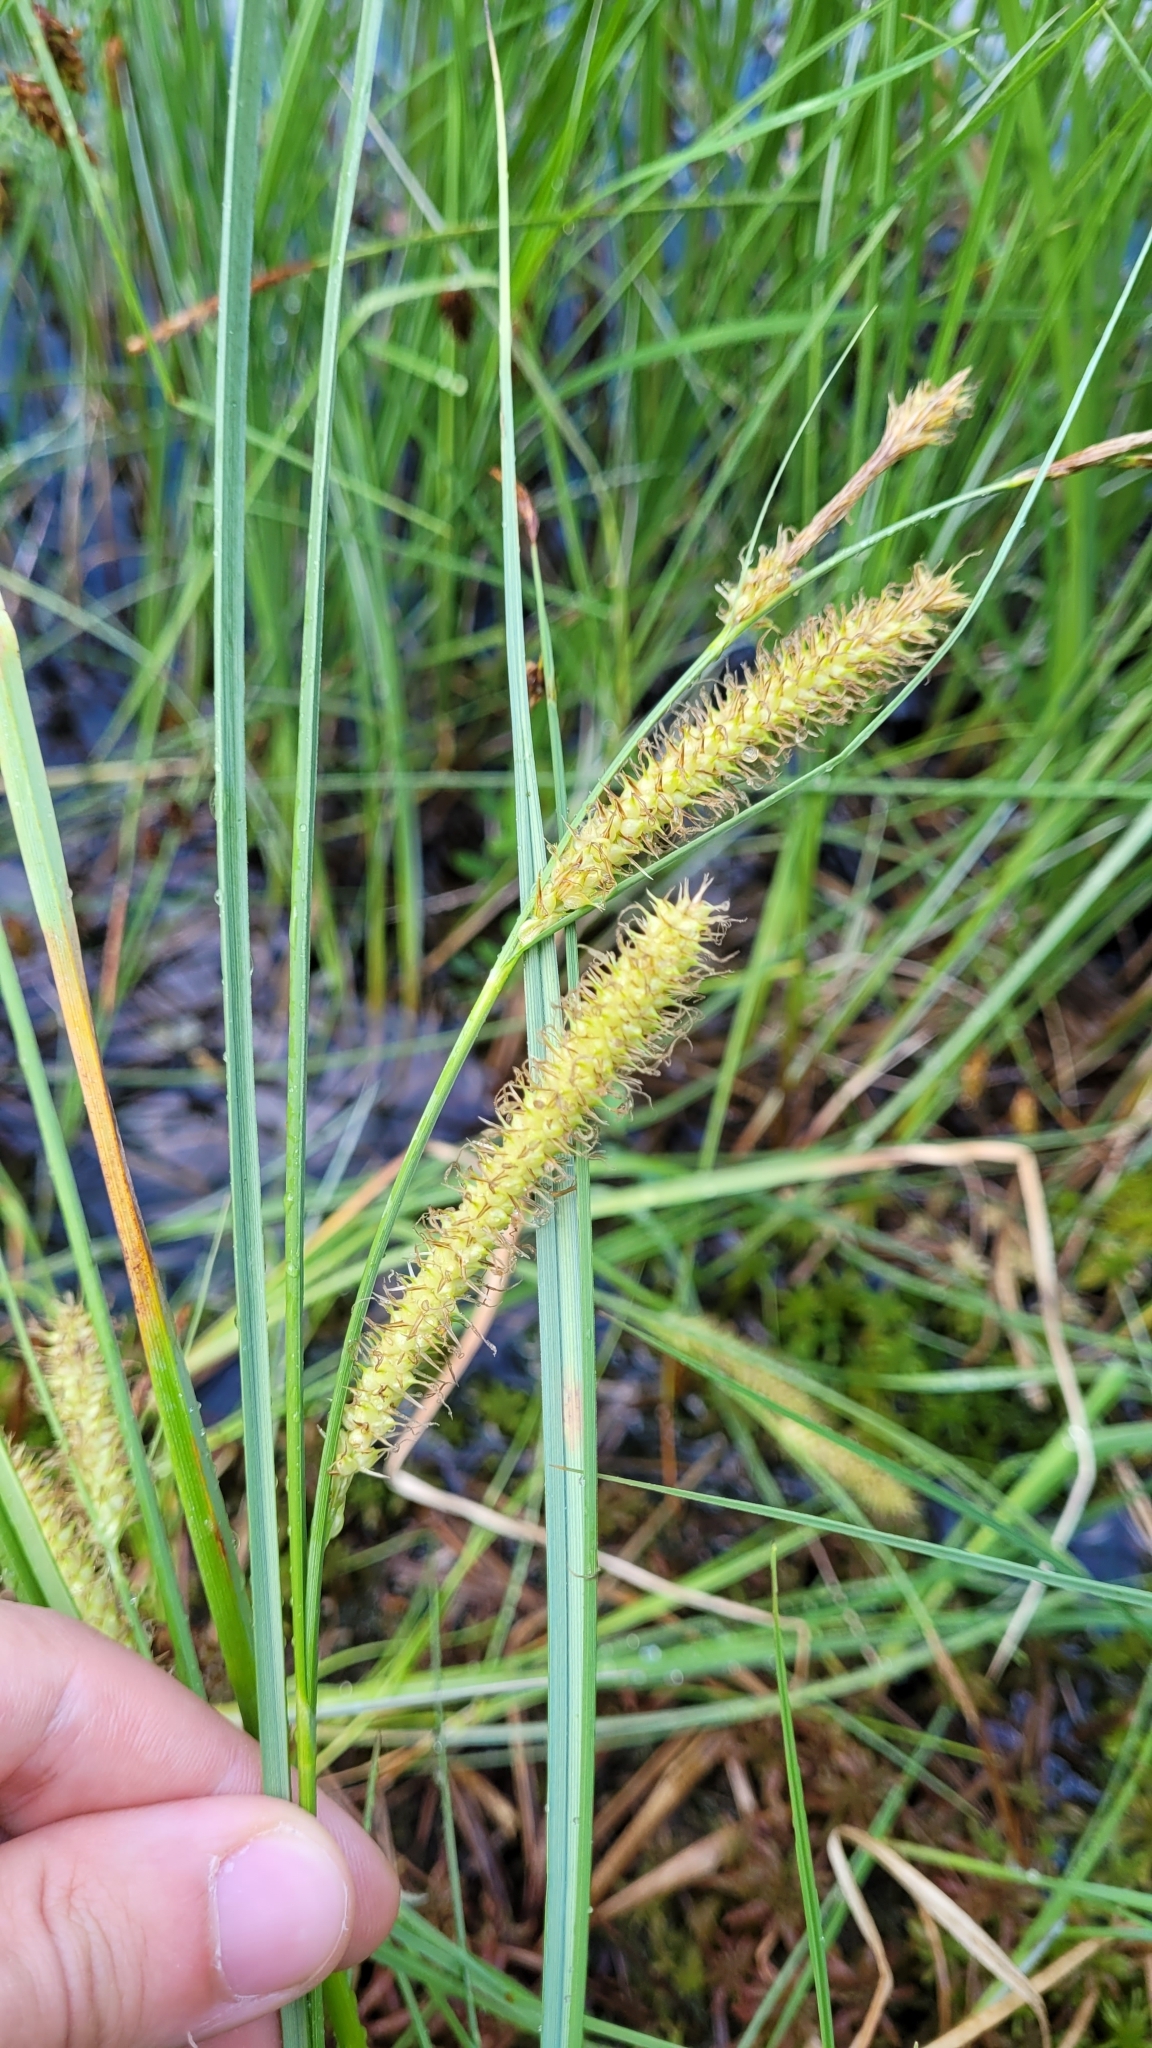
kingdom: Plantae
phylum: Tracheophyta
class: Liliopsida
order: Poales
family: Cyperaceae
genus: Carex
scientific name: Carex rostrata
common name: Bottle sedge
